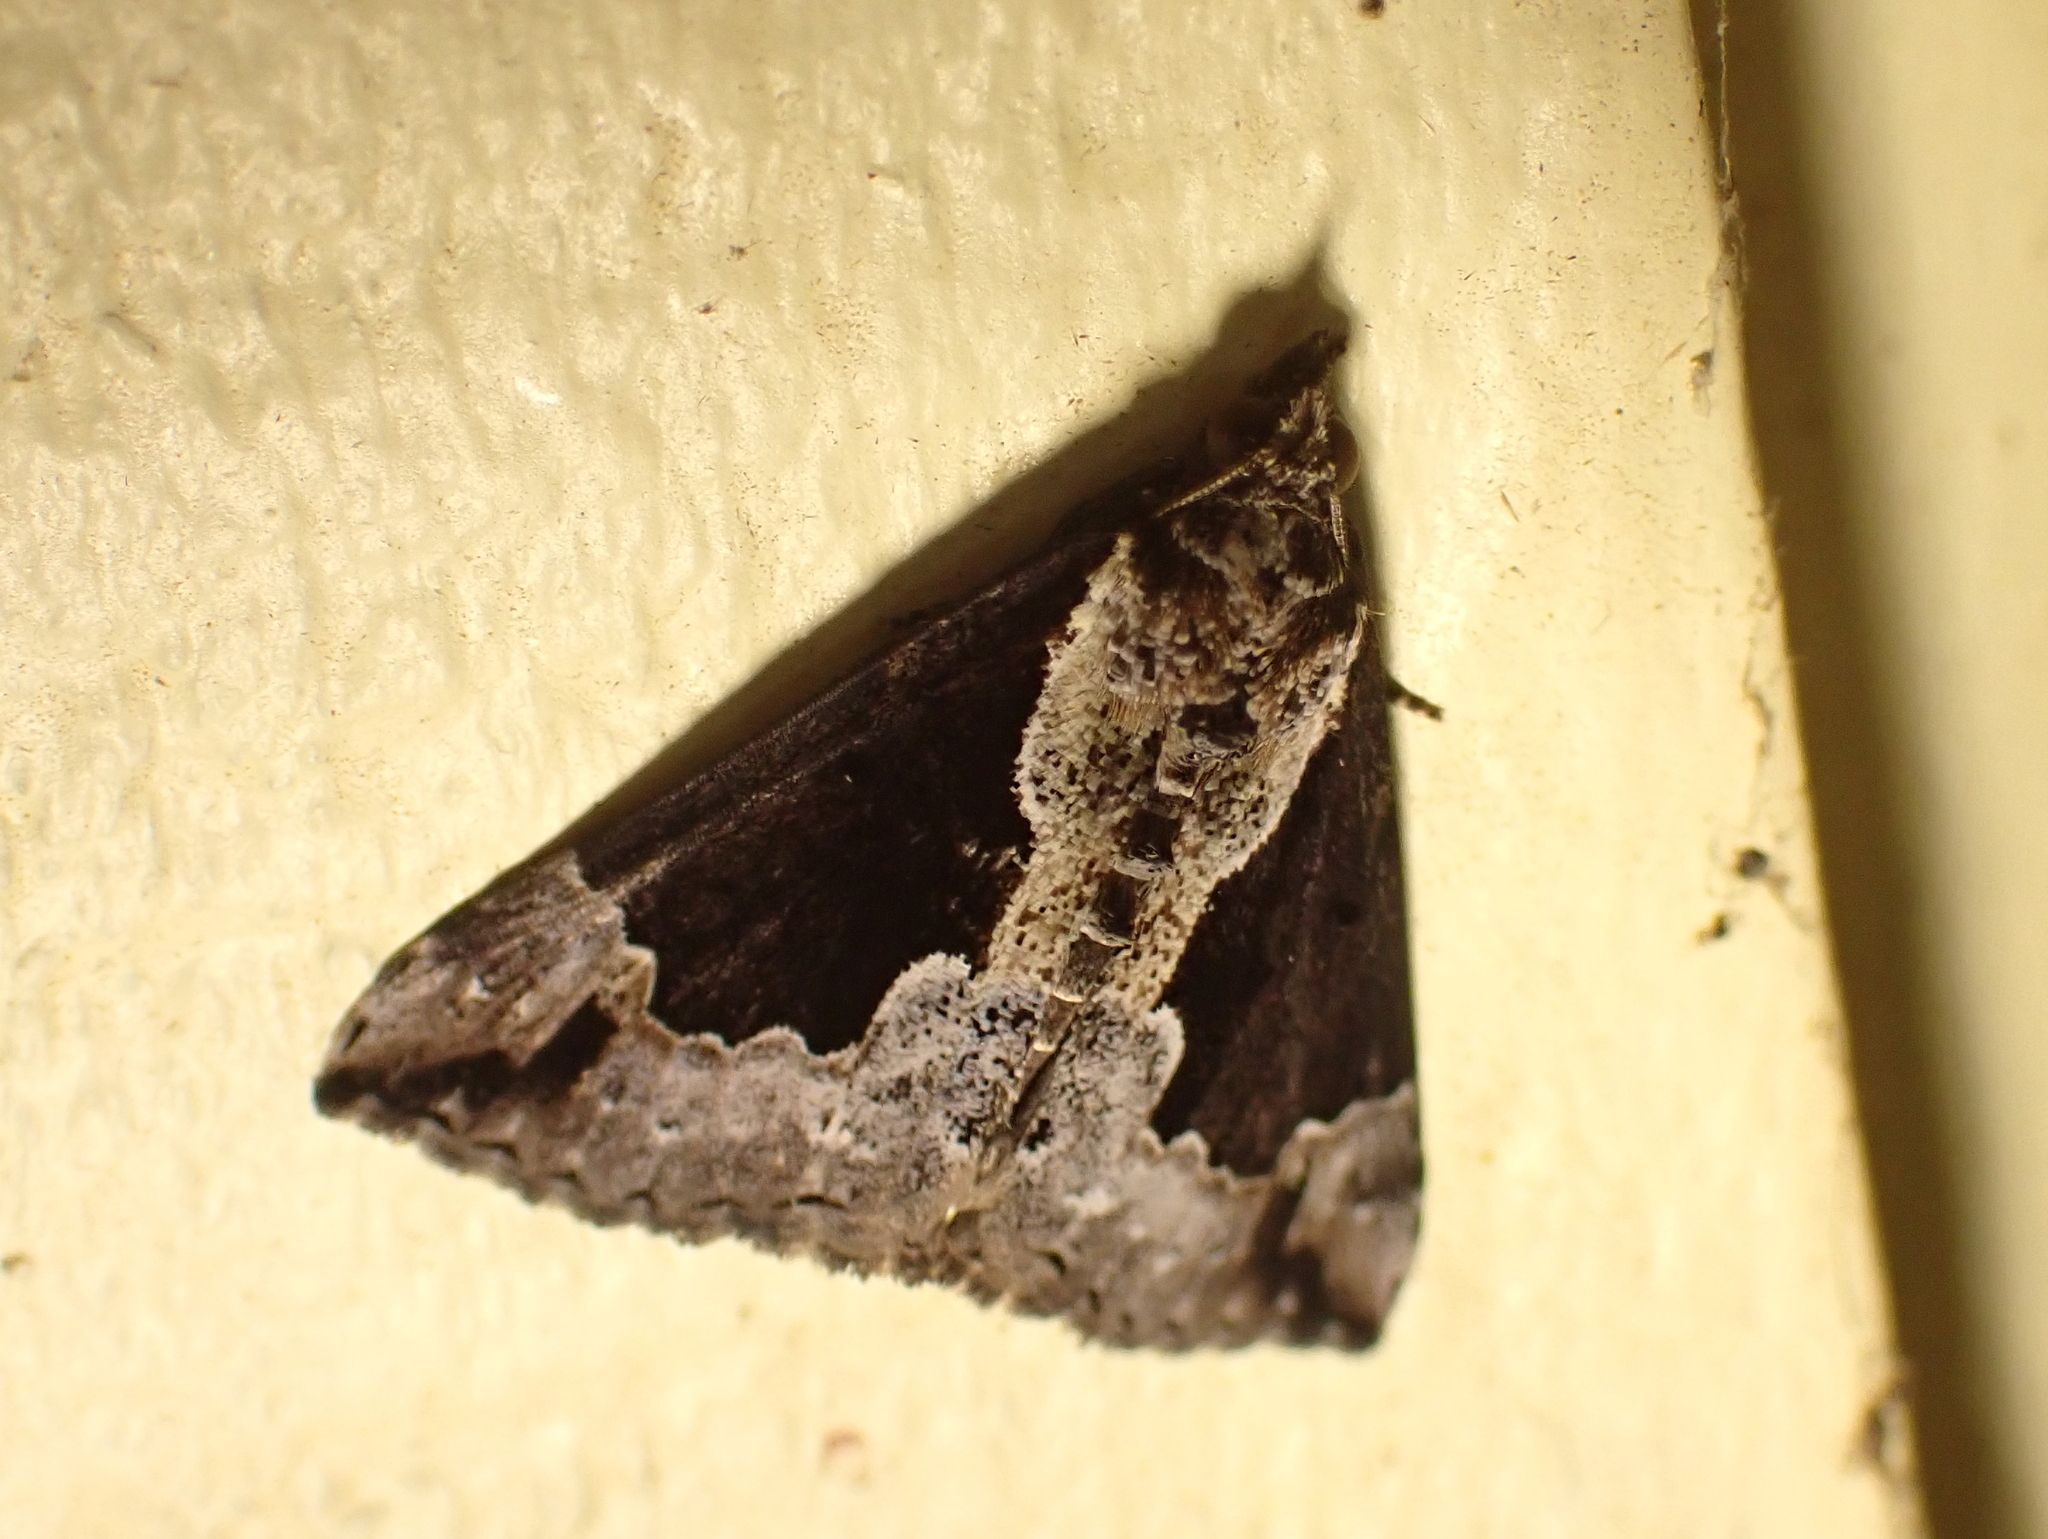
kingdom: Animalia
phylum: Arthropoda
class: Insecta
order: Lepidoptera
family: Erebidae
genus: Hypena
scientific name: Hypena baltimoralis
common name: Baltimore snout
